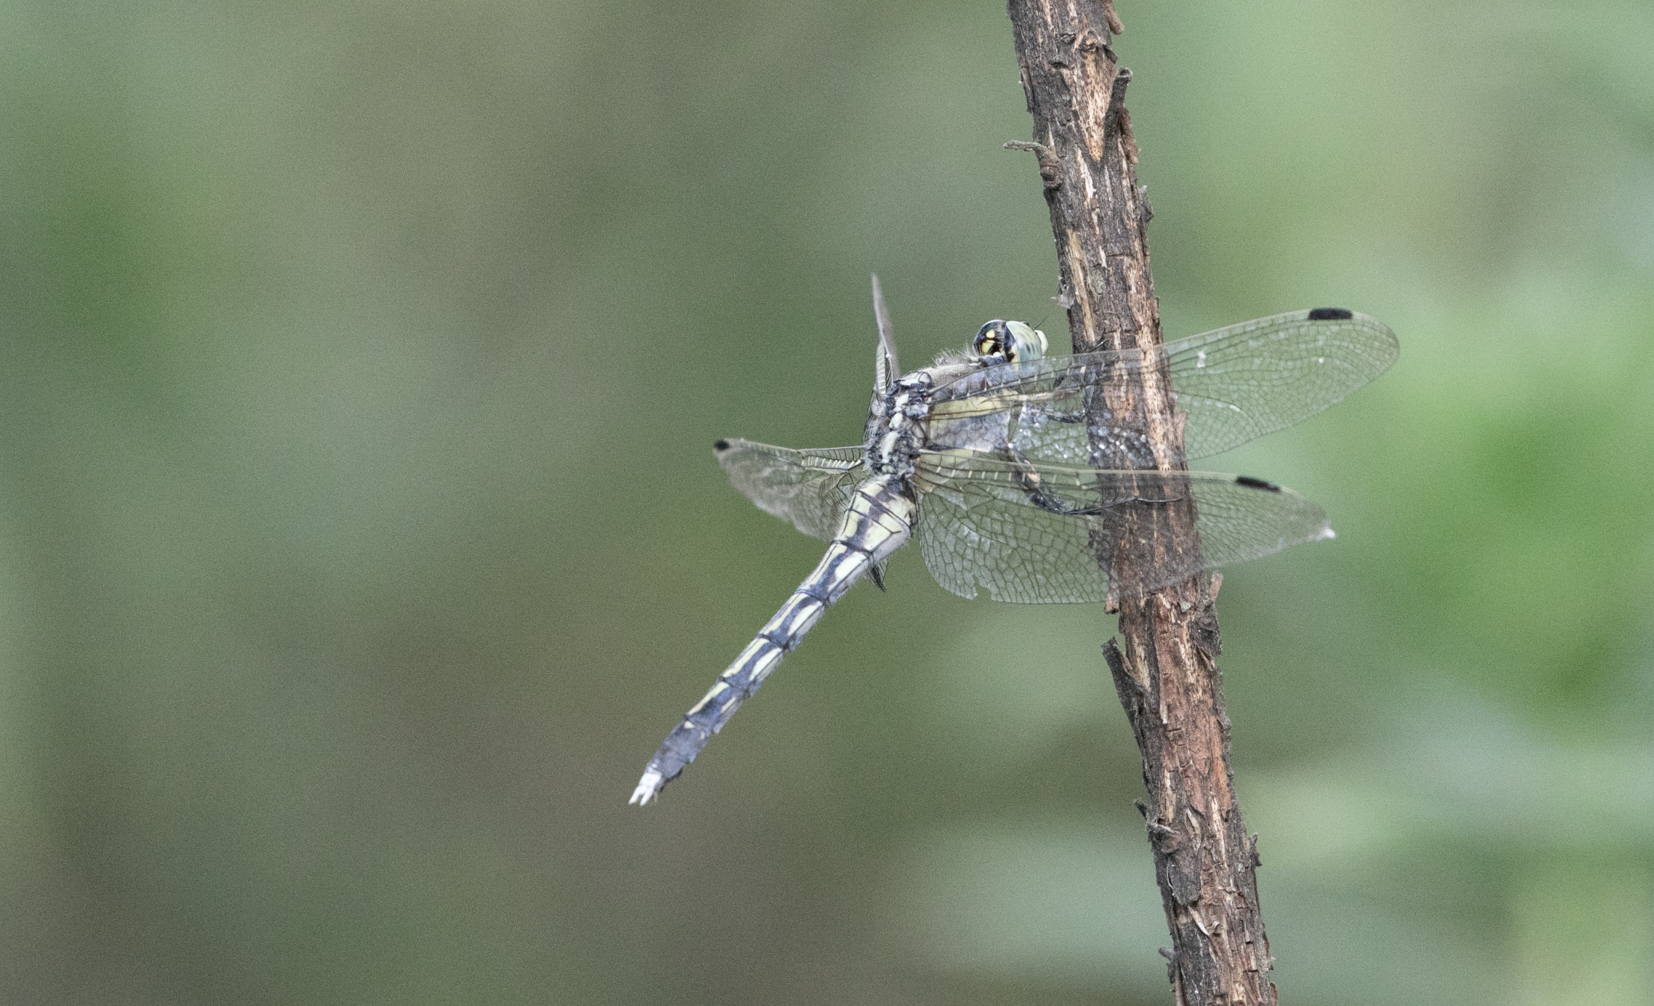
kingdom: Animalia
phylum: Arthropoda
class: Insecta
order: Odonata
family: Libellulidae
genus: Orthetrum
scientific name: Orthetrum albistylum
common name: White-tailed skimmer
